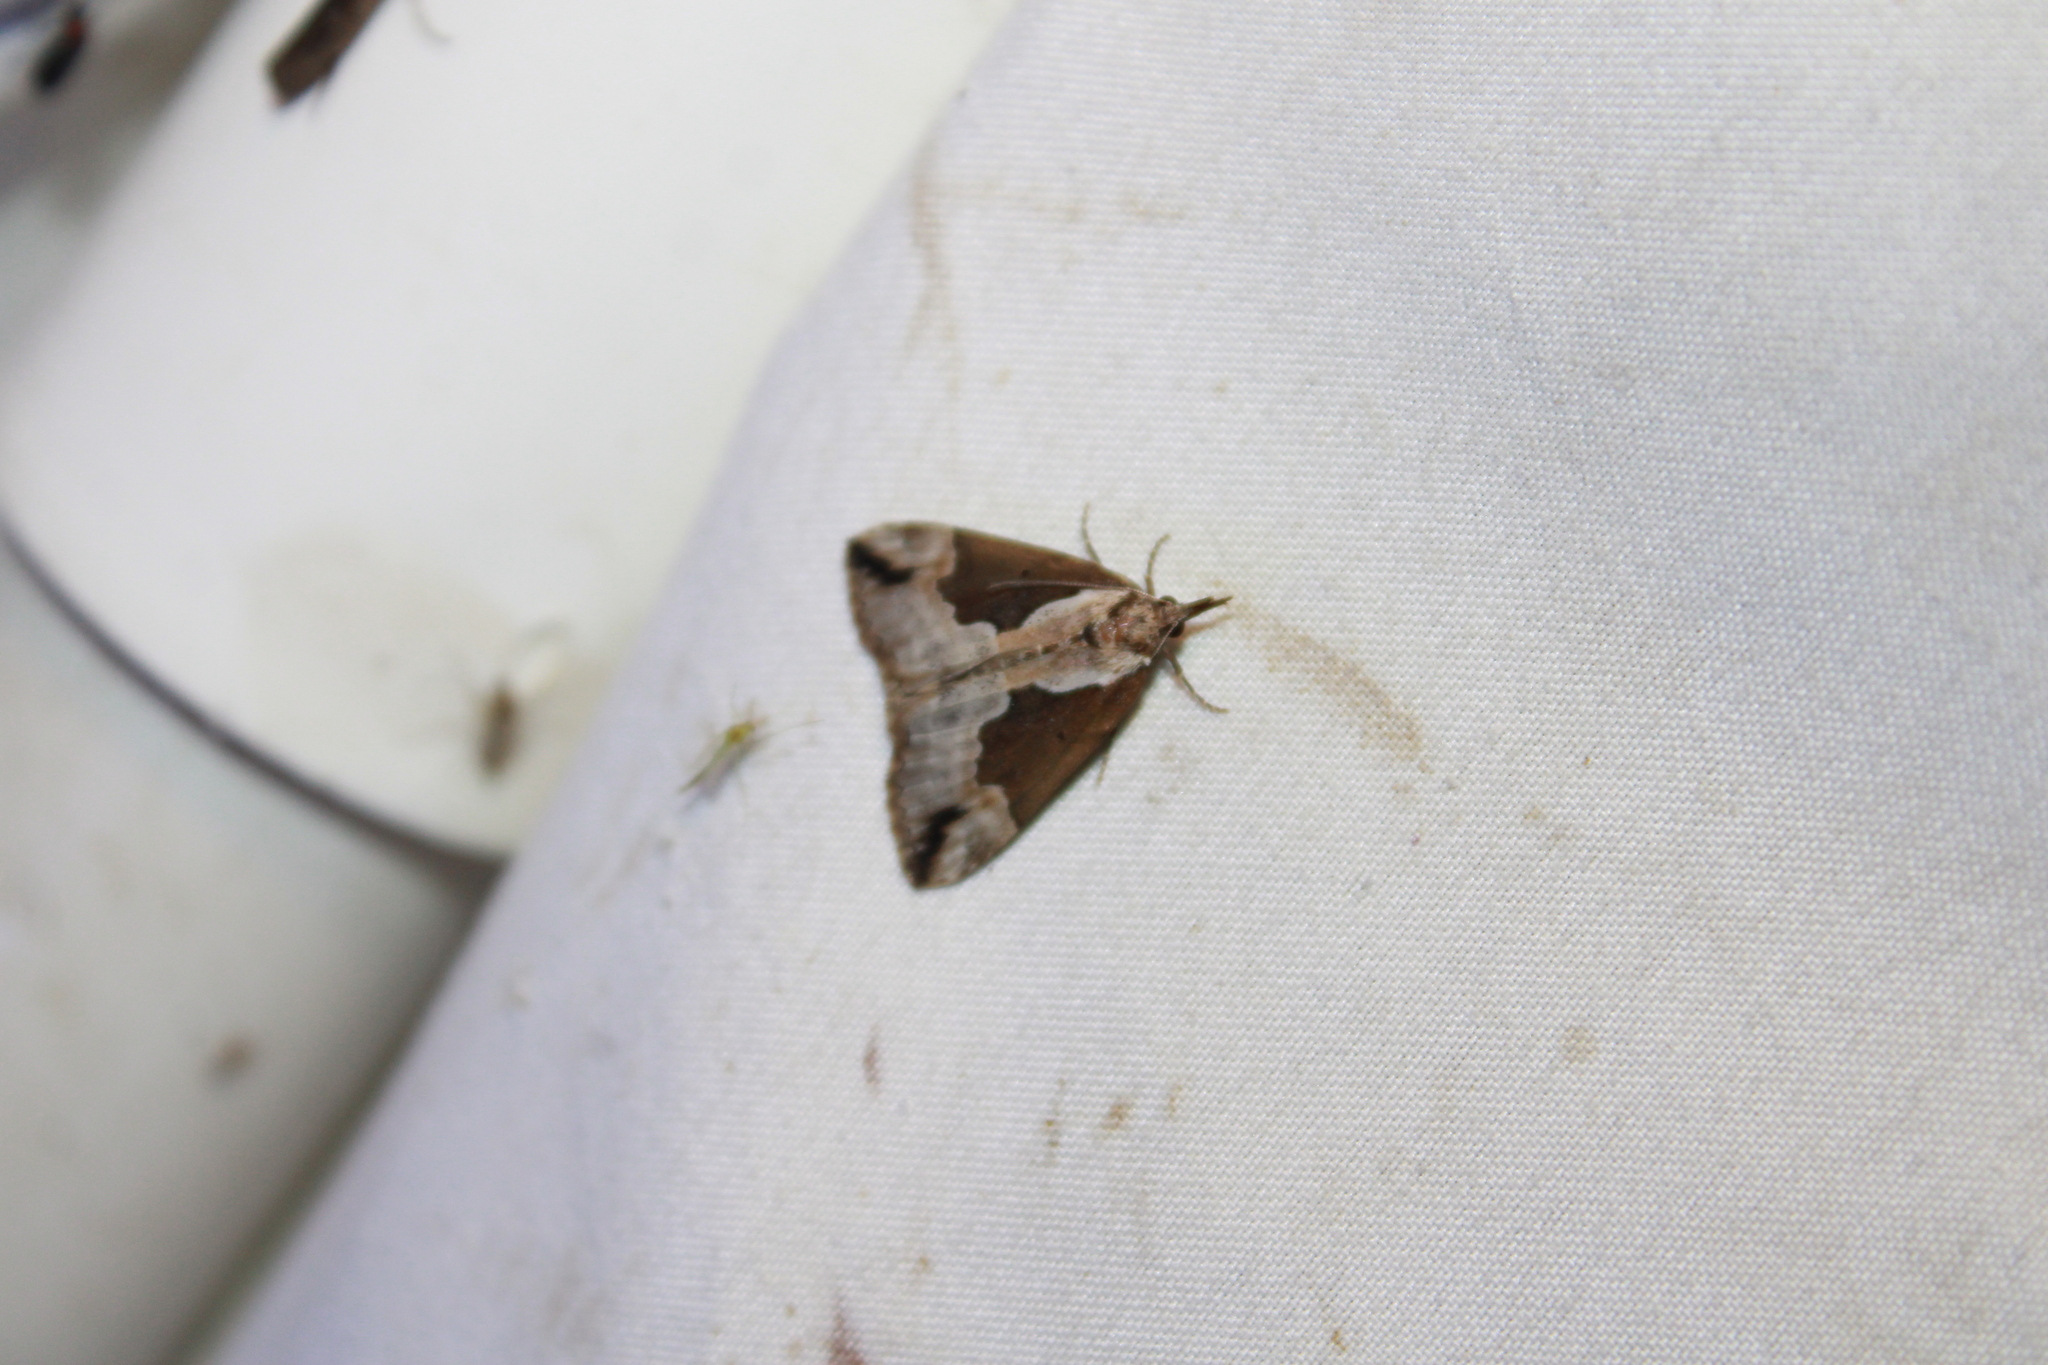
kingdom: Animalia
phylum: Arthropoda
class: Insecta
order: Lepidoptera
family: Erebidae
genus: Hypena
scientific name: Hypena baltimoralis
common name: Baltimore snout
